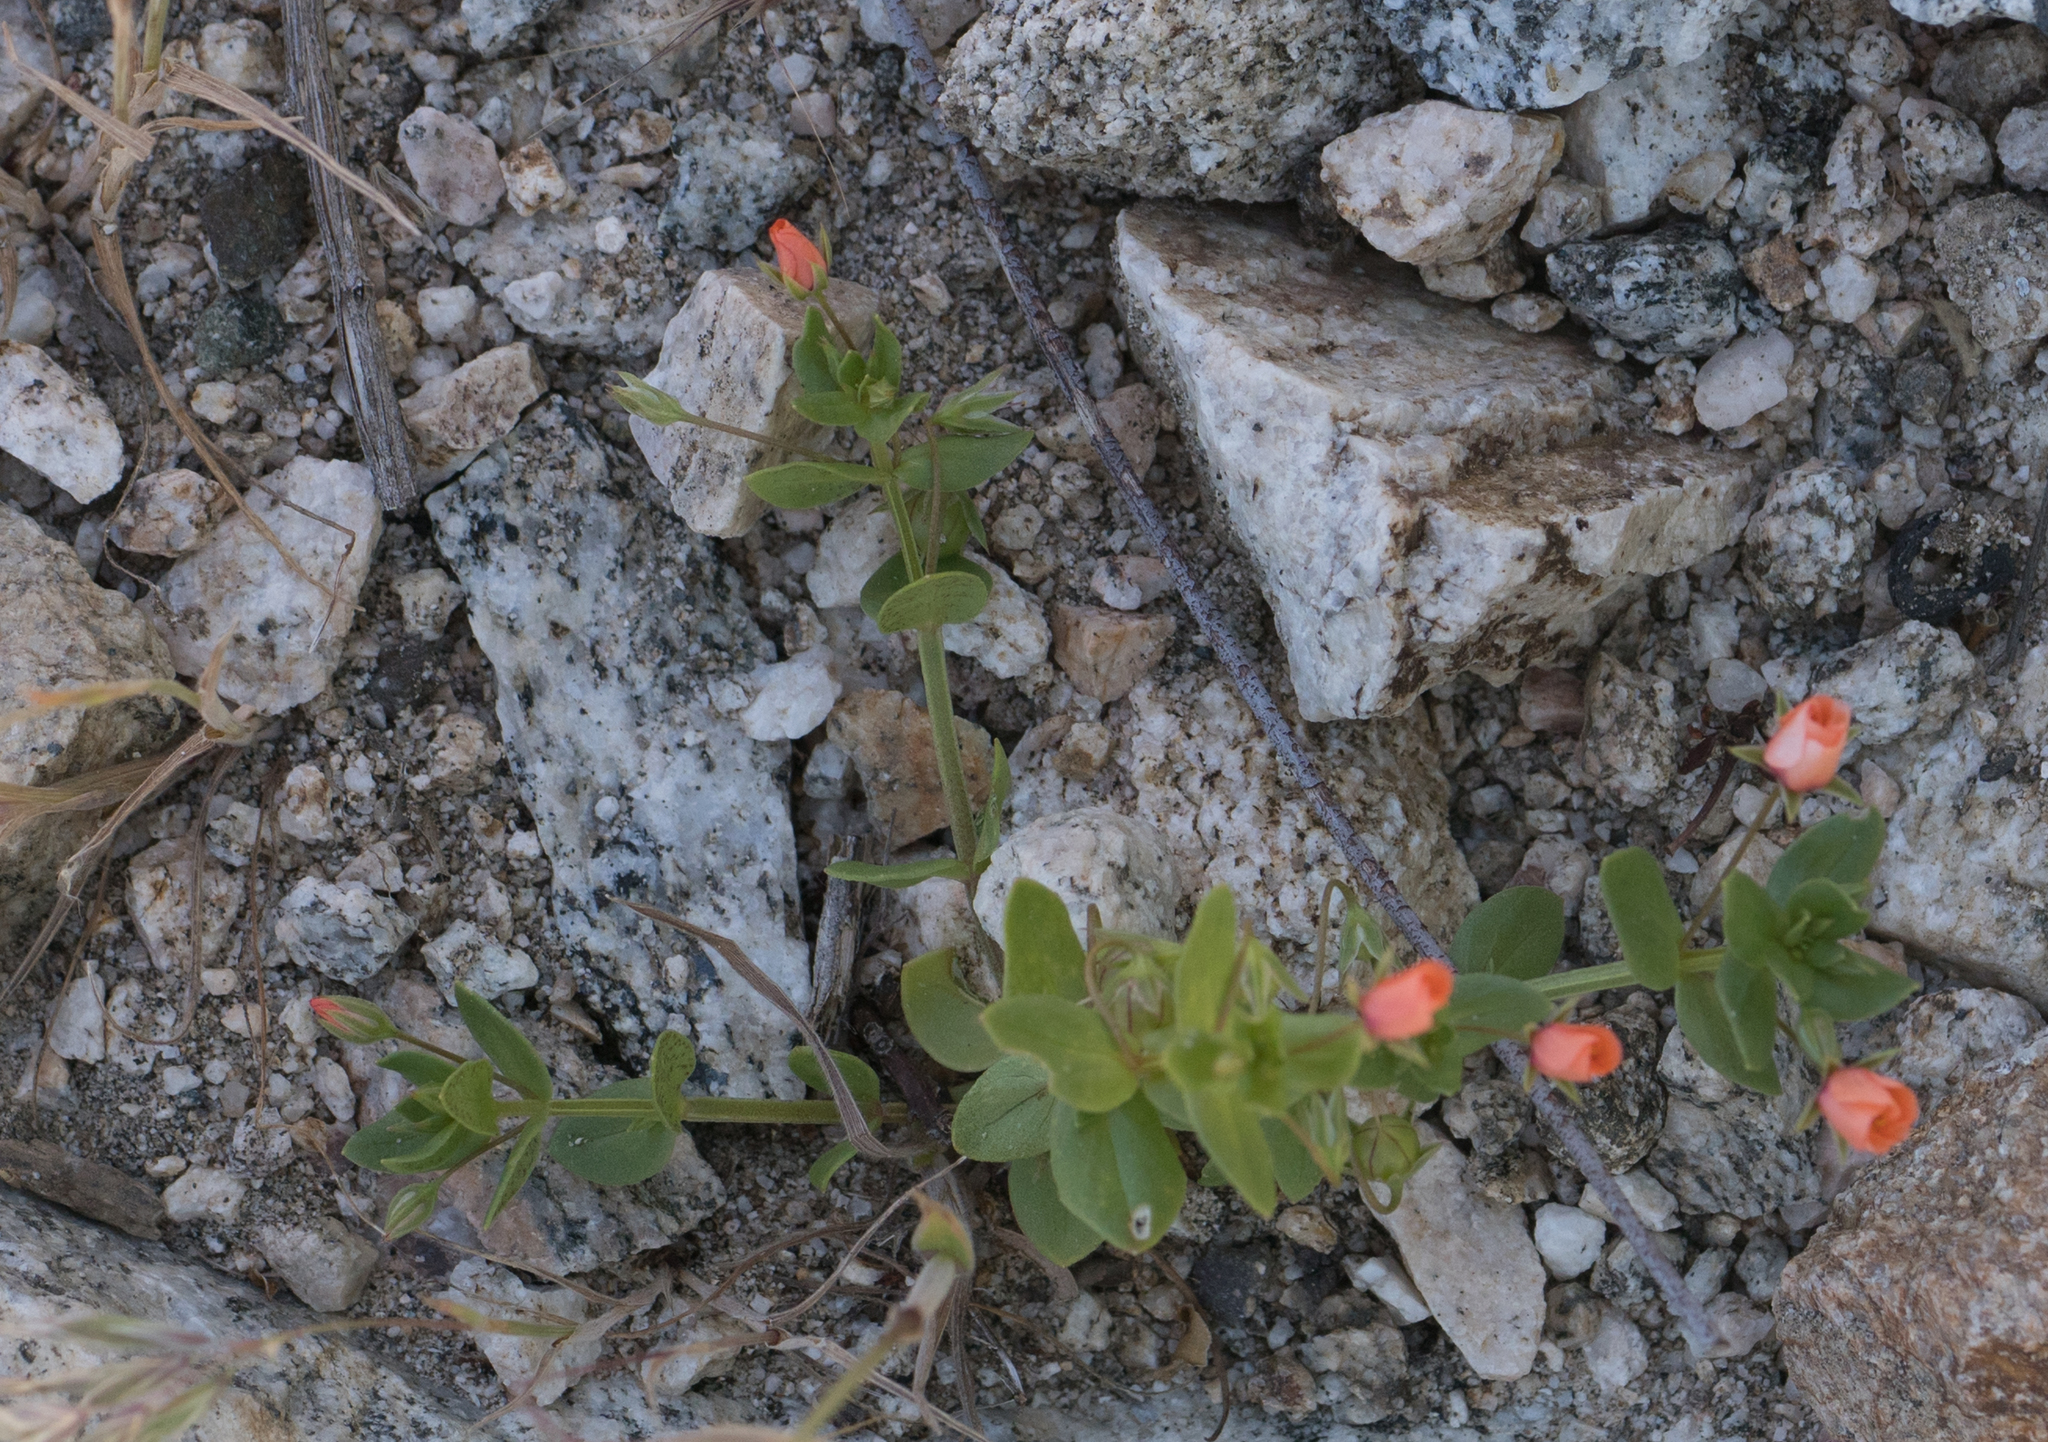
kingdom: Plantae
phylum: Tracheophyta
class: Magnoliopsida
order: Ericales
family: Primulaceae
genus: Lysimachia
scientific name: Lysimachia arvensis
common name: Scarlet pimpernel
